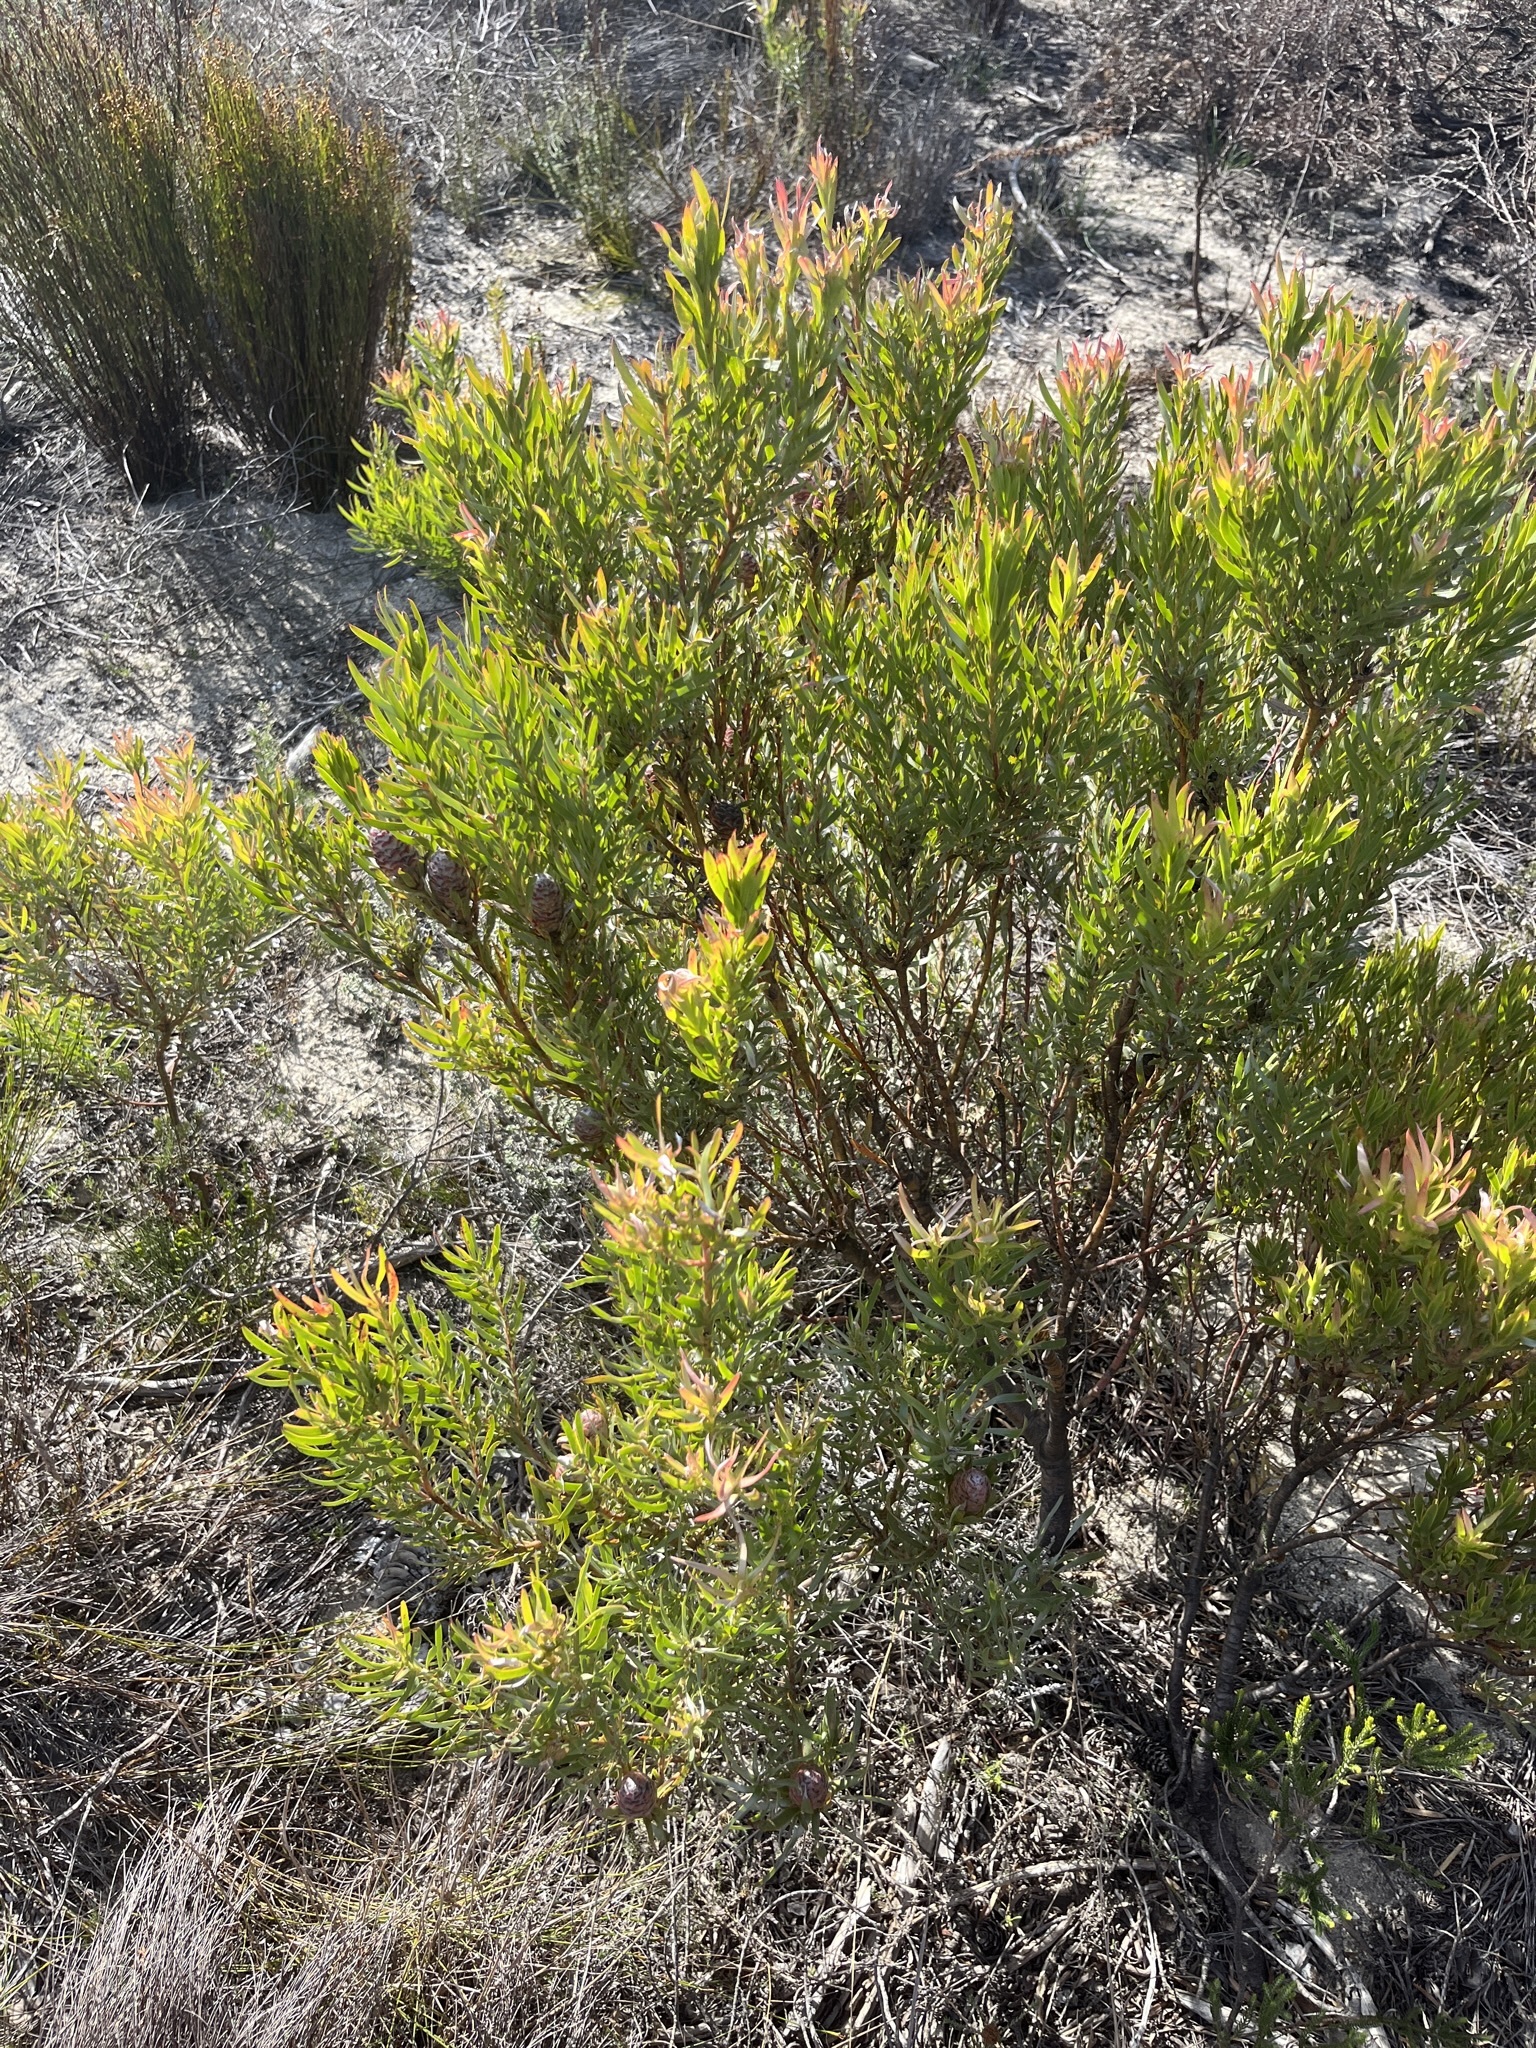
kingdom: Plantae
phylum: Tracheophyta
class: Magnoliopsida
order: Proteales
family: Proteaceae
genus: Leucadendron
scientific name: Leucadendron xanthoconus
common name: Sickle-leaf conebush
